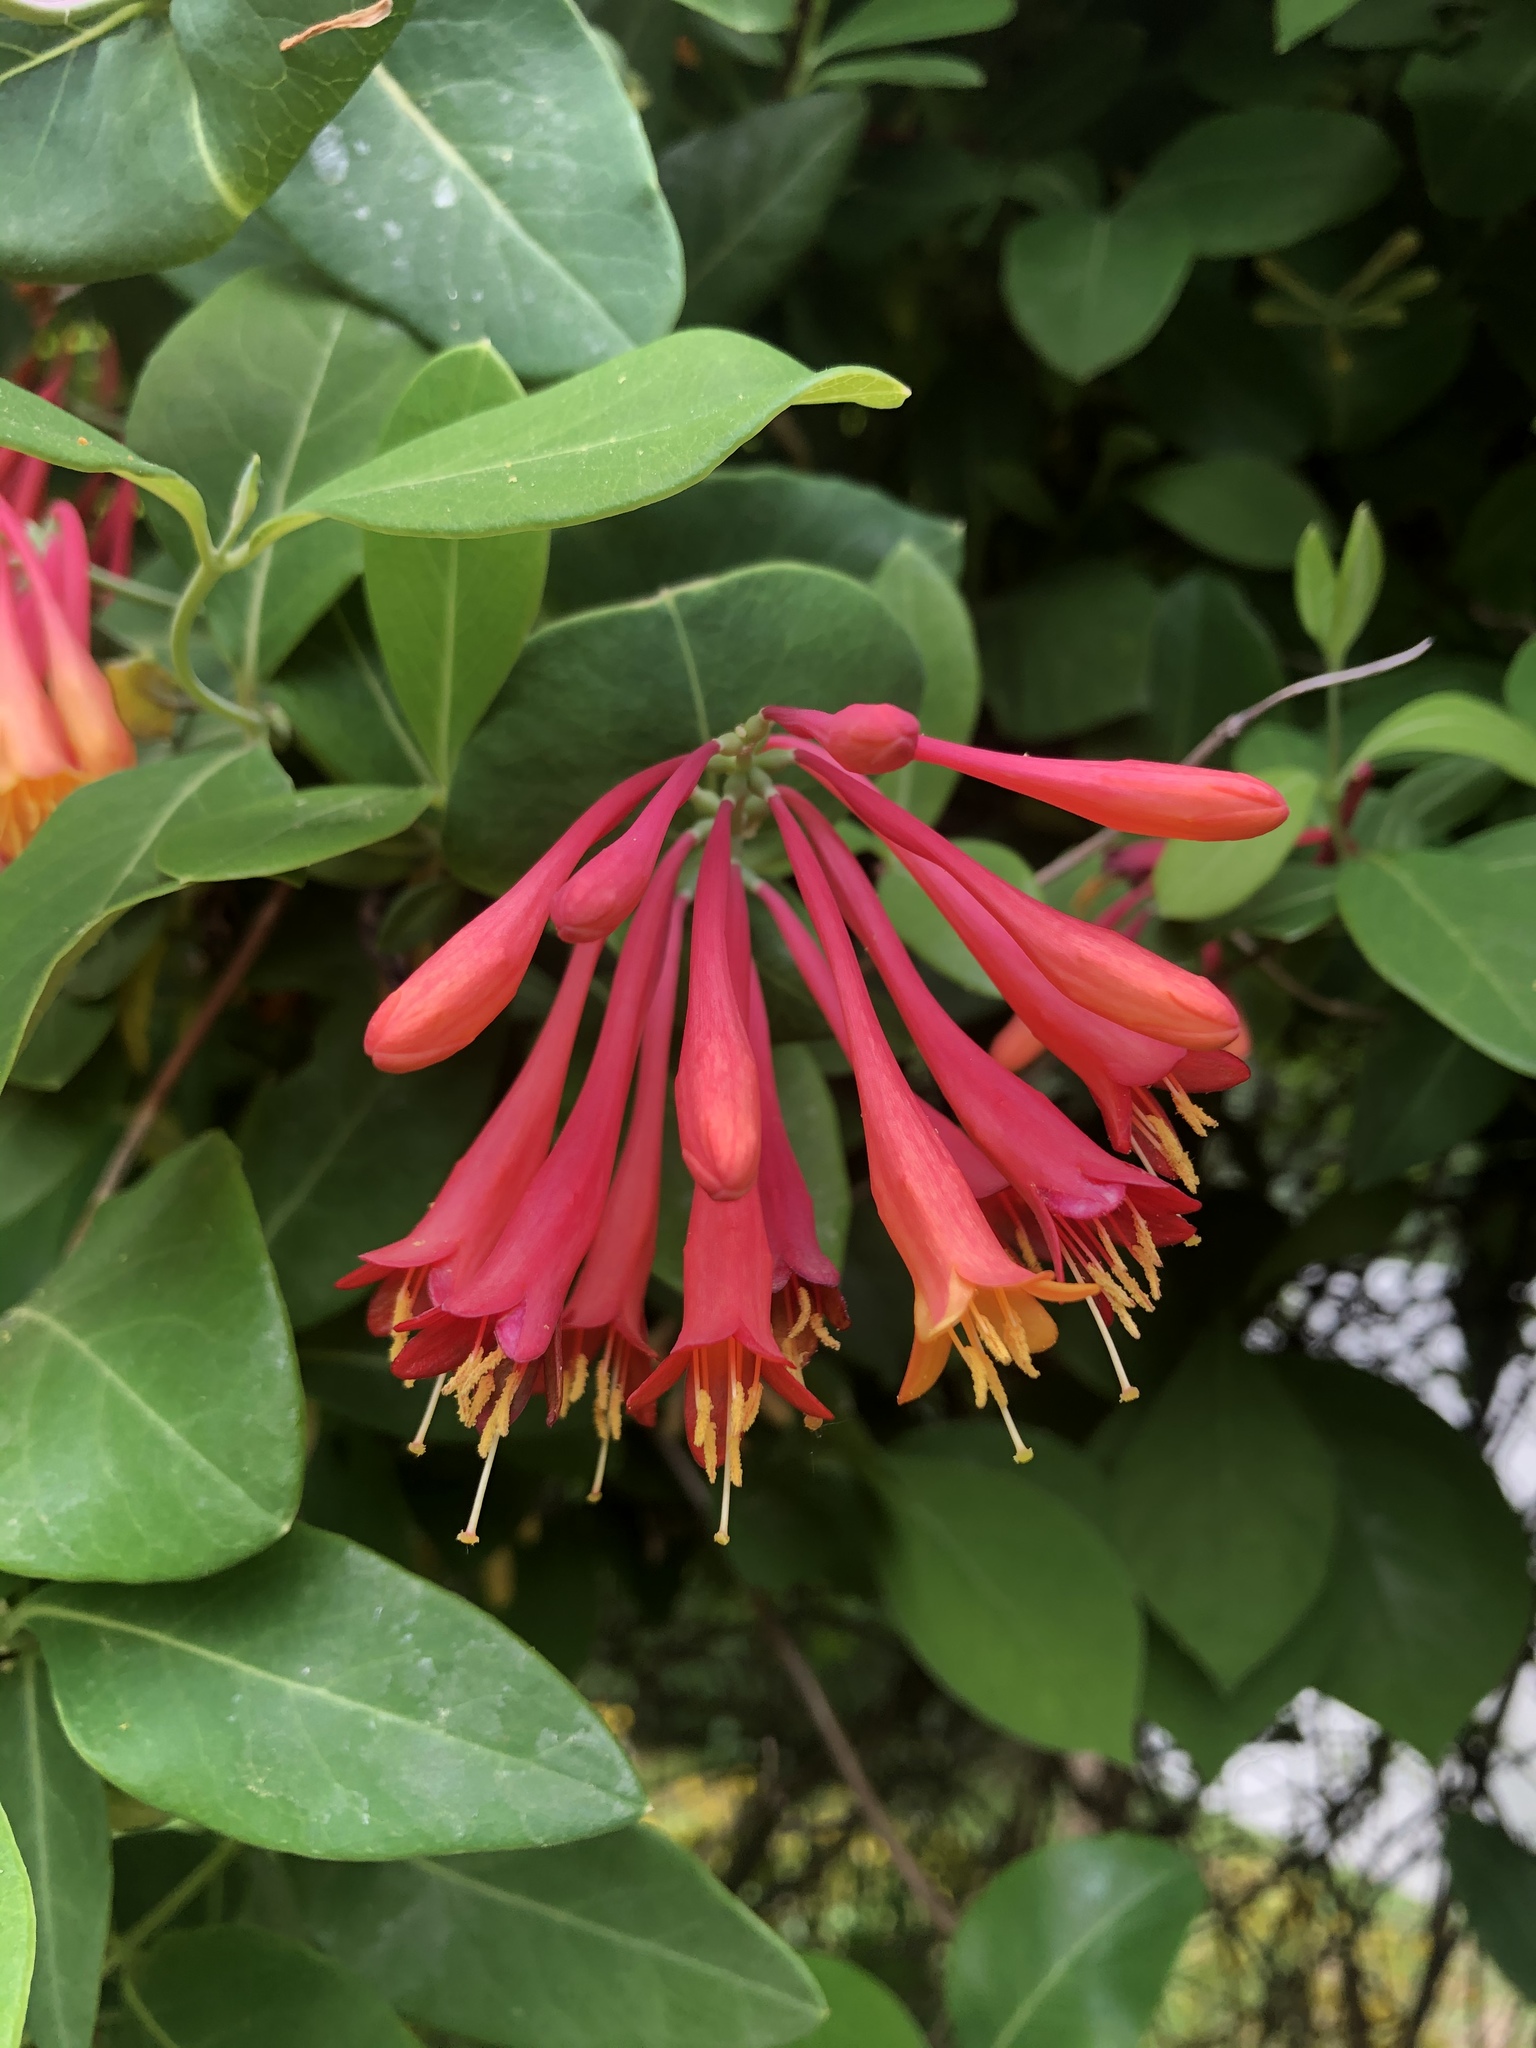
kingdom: Plantae
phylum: Tracheophyta
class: Magnoliopsida
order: Dipsacales
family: Caprifoliaceae
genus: Lonicera
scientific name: Lonicera sempervirens
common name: Coral honeysuckle
